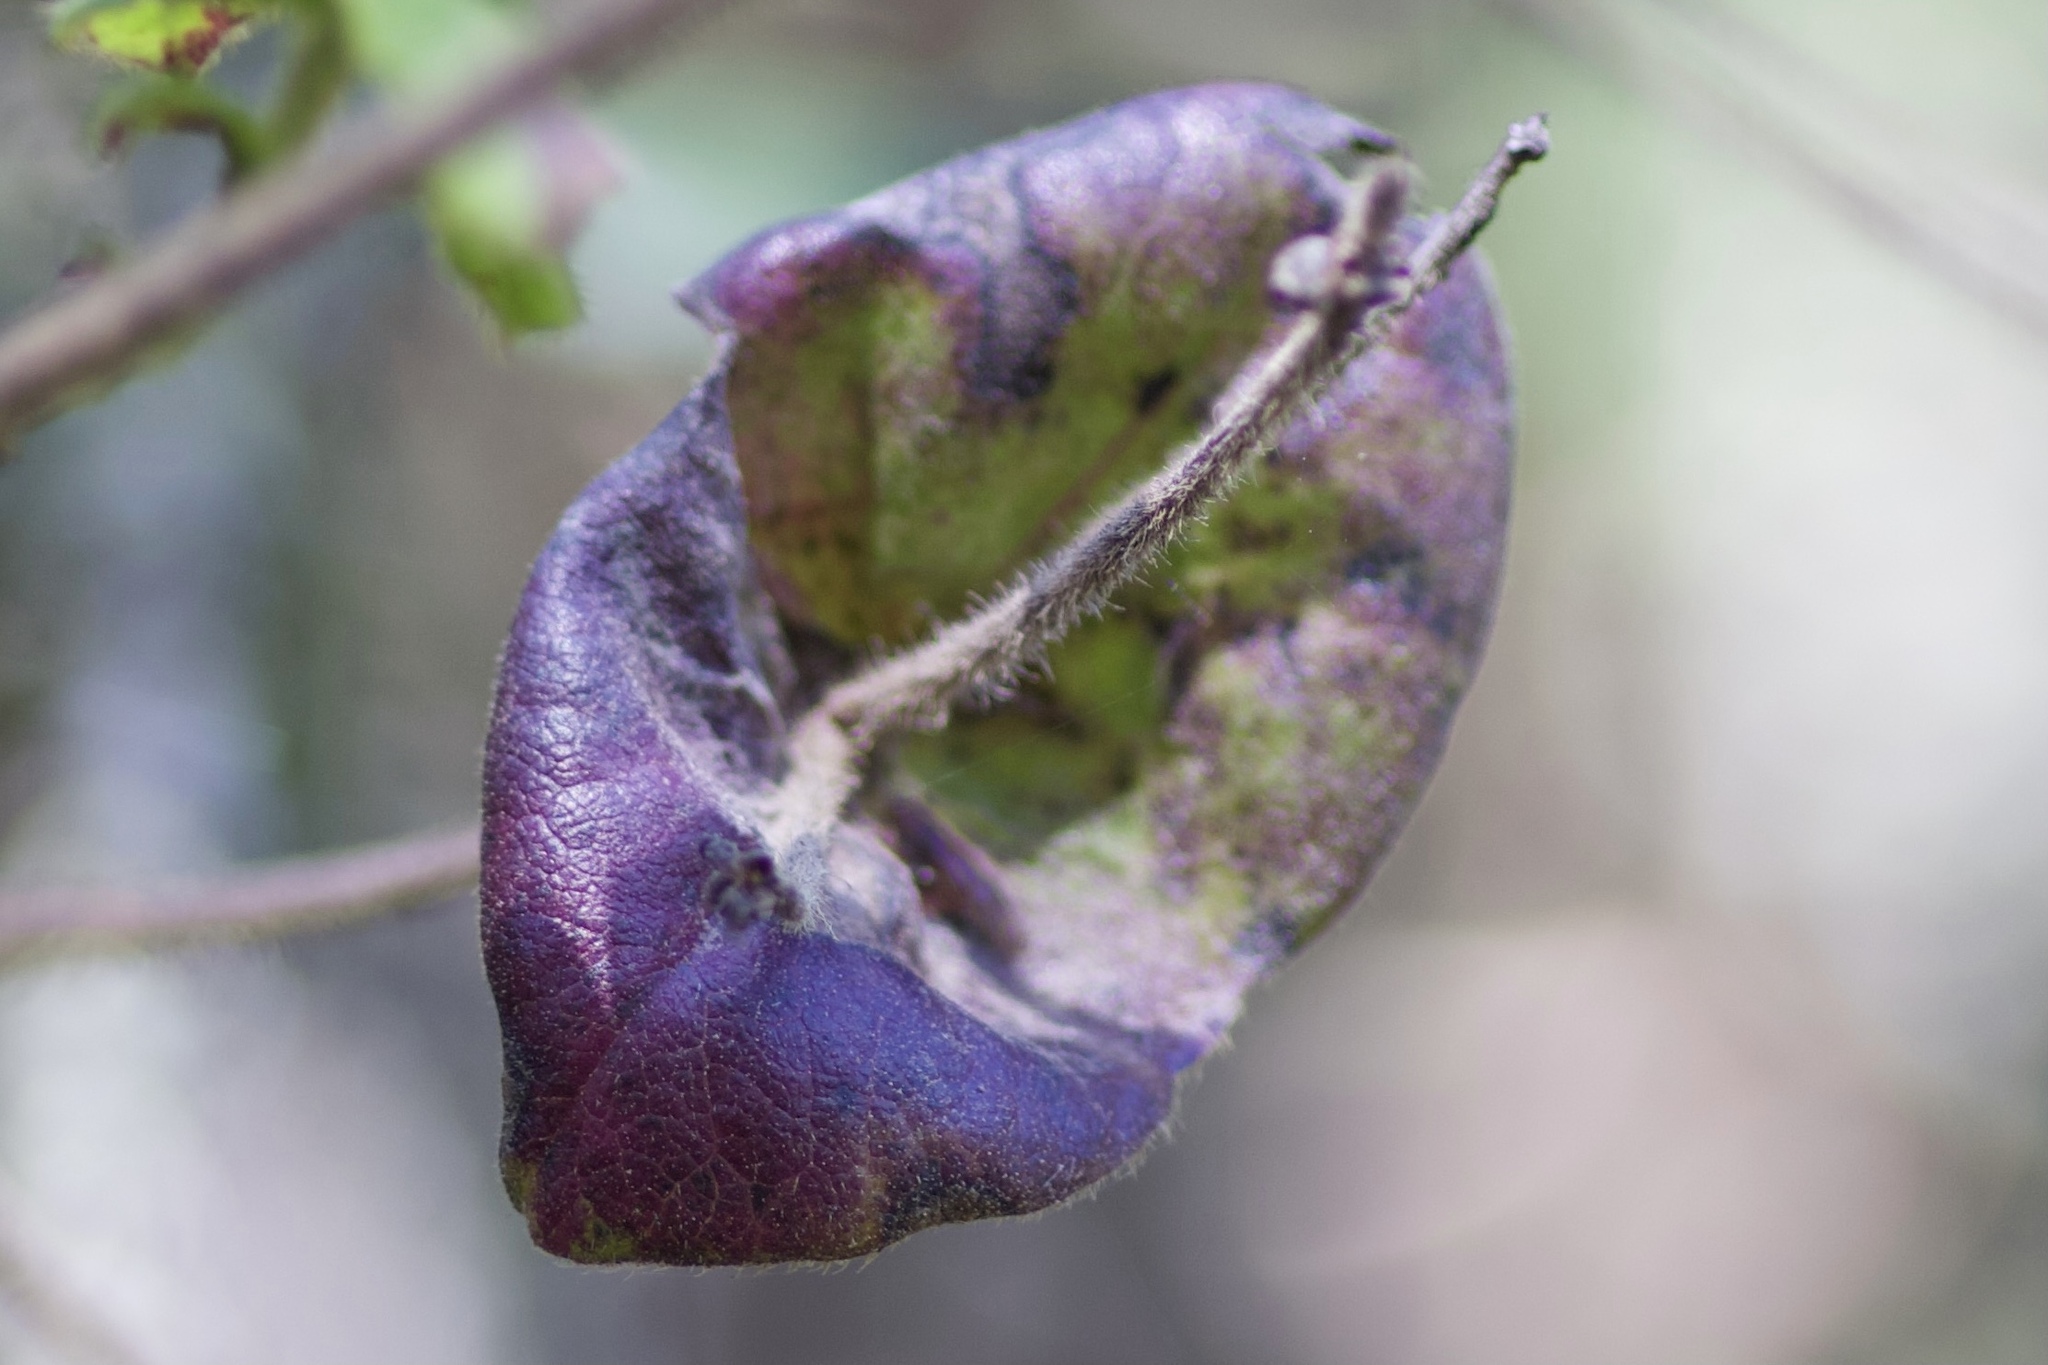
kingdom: Plantae
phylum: Tracheophyta
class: Magnoliopsida
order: Dipsacales
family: Caprifoliaceae
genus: Lonicera
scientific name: Lonicera hispidula
